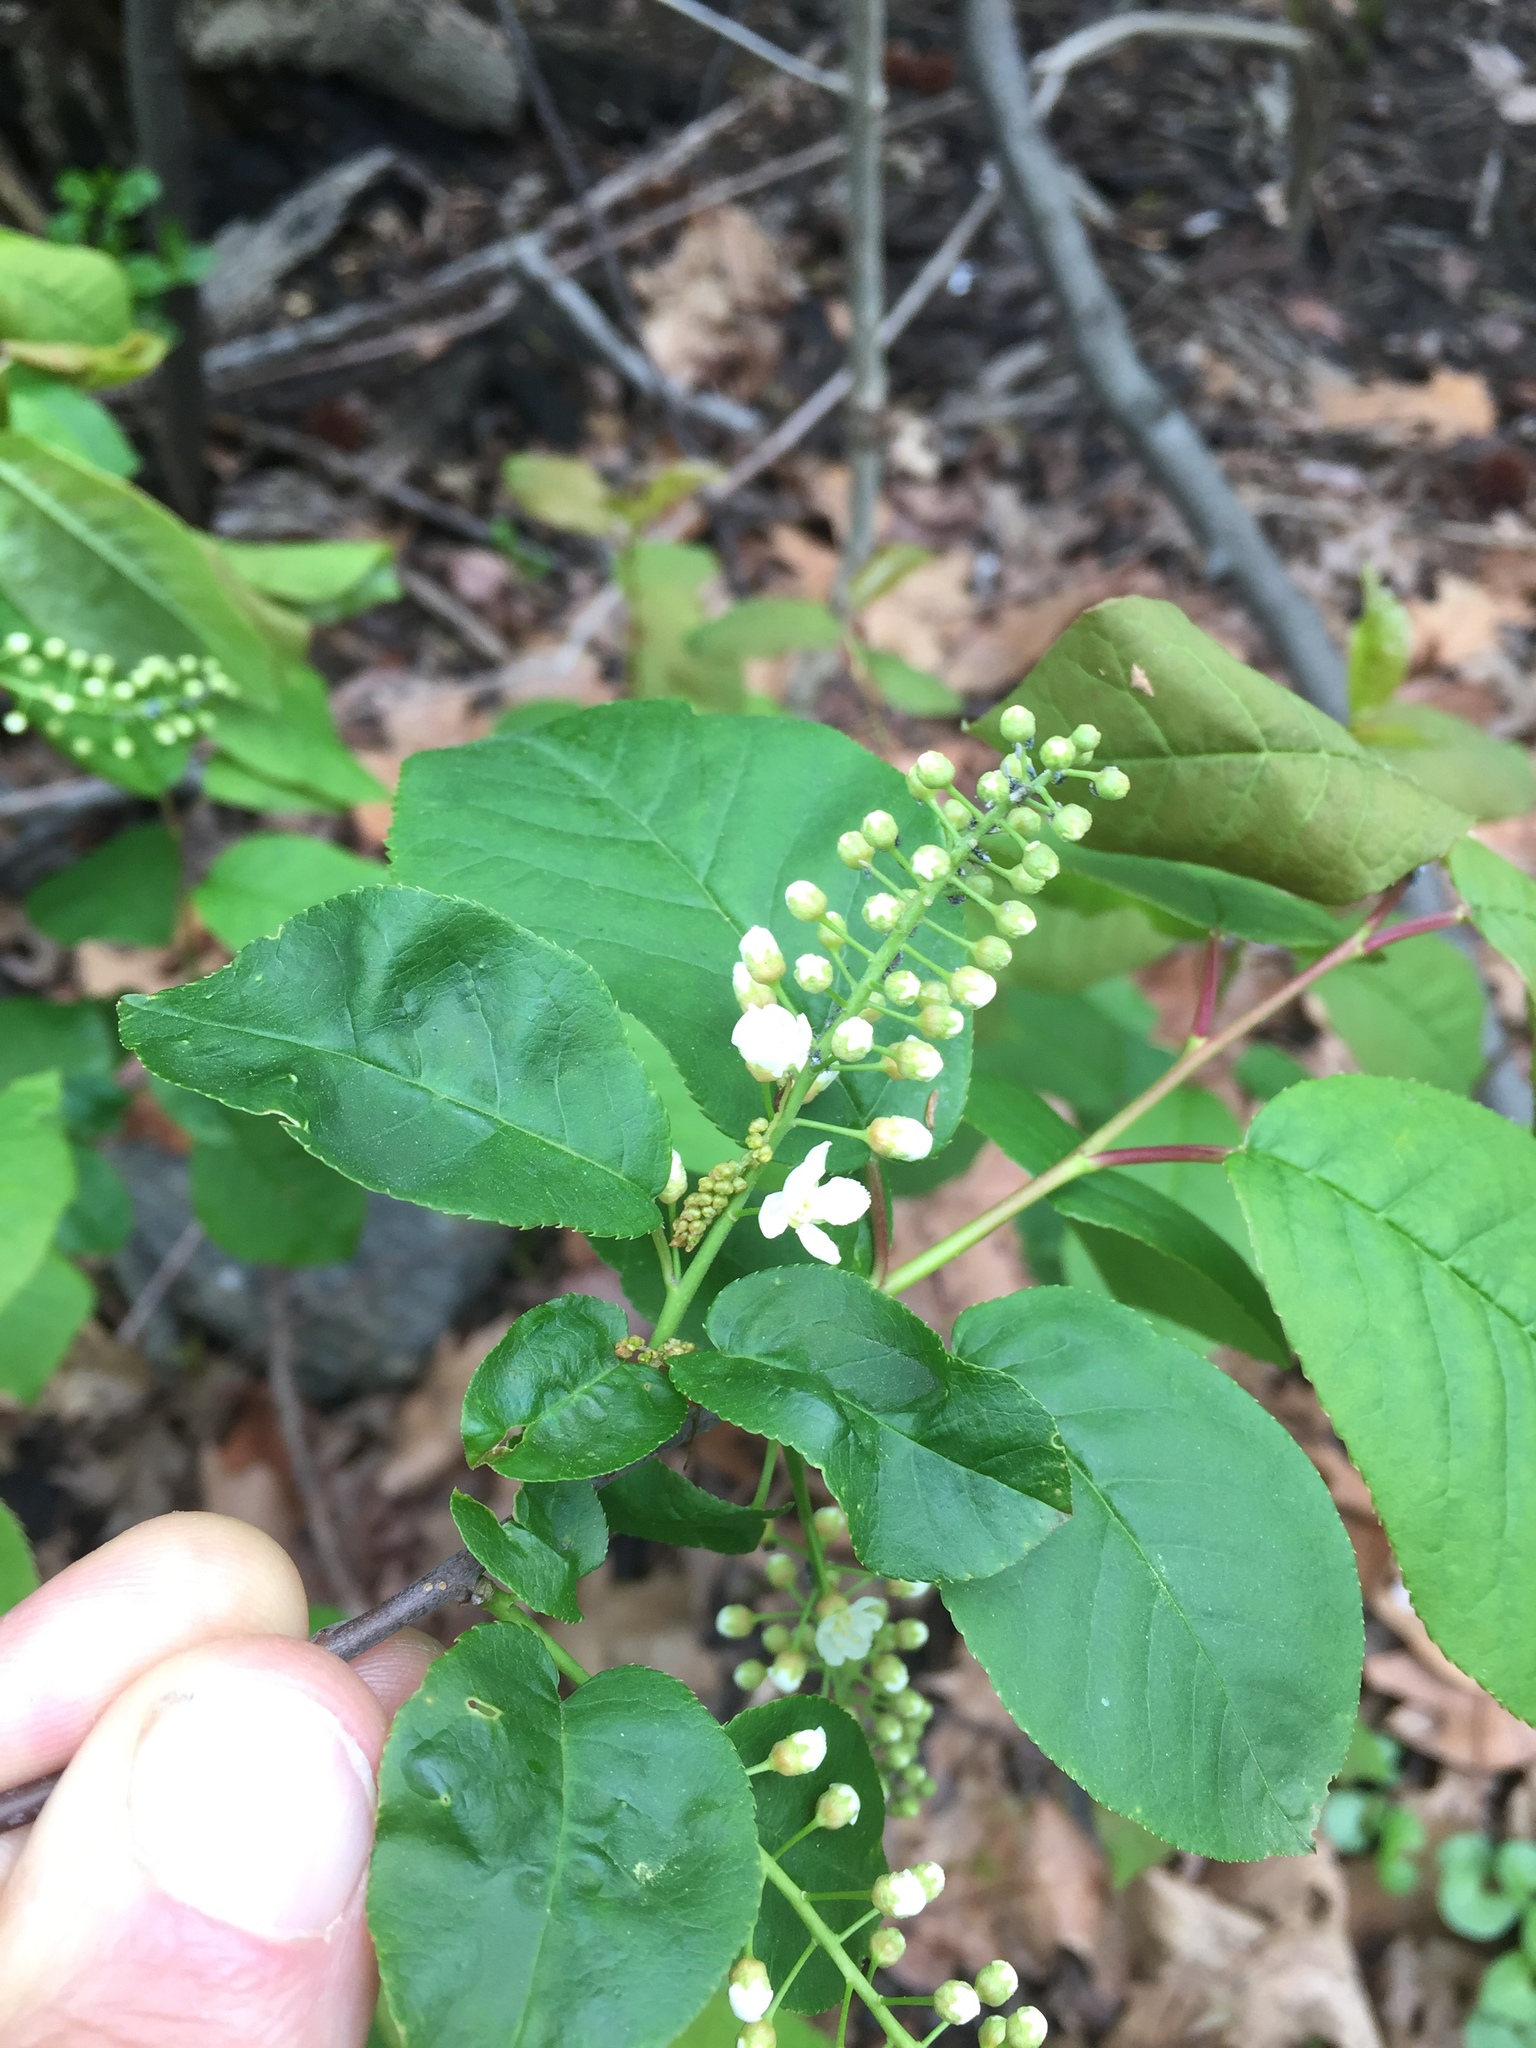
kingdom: Plantae
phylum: Tracheophyta
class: Magnoliopsida
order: Rosales
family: Rosaceae
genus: Prunus
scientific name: Prunus virginiana
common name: Chokecherry
